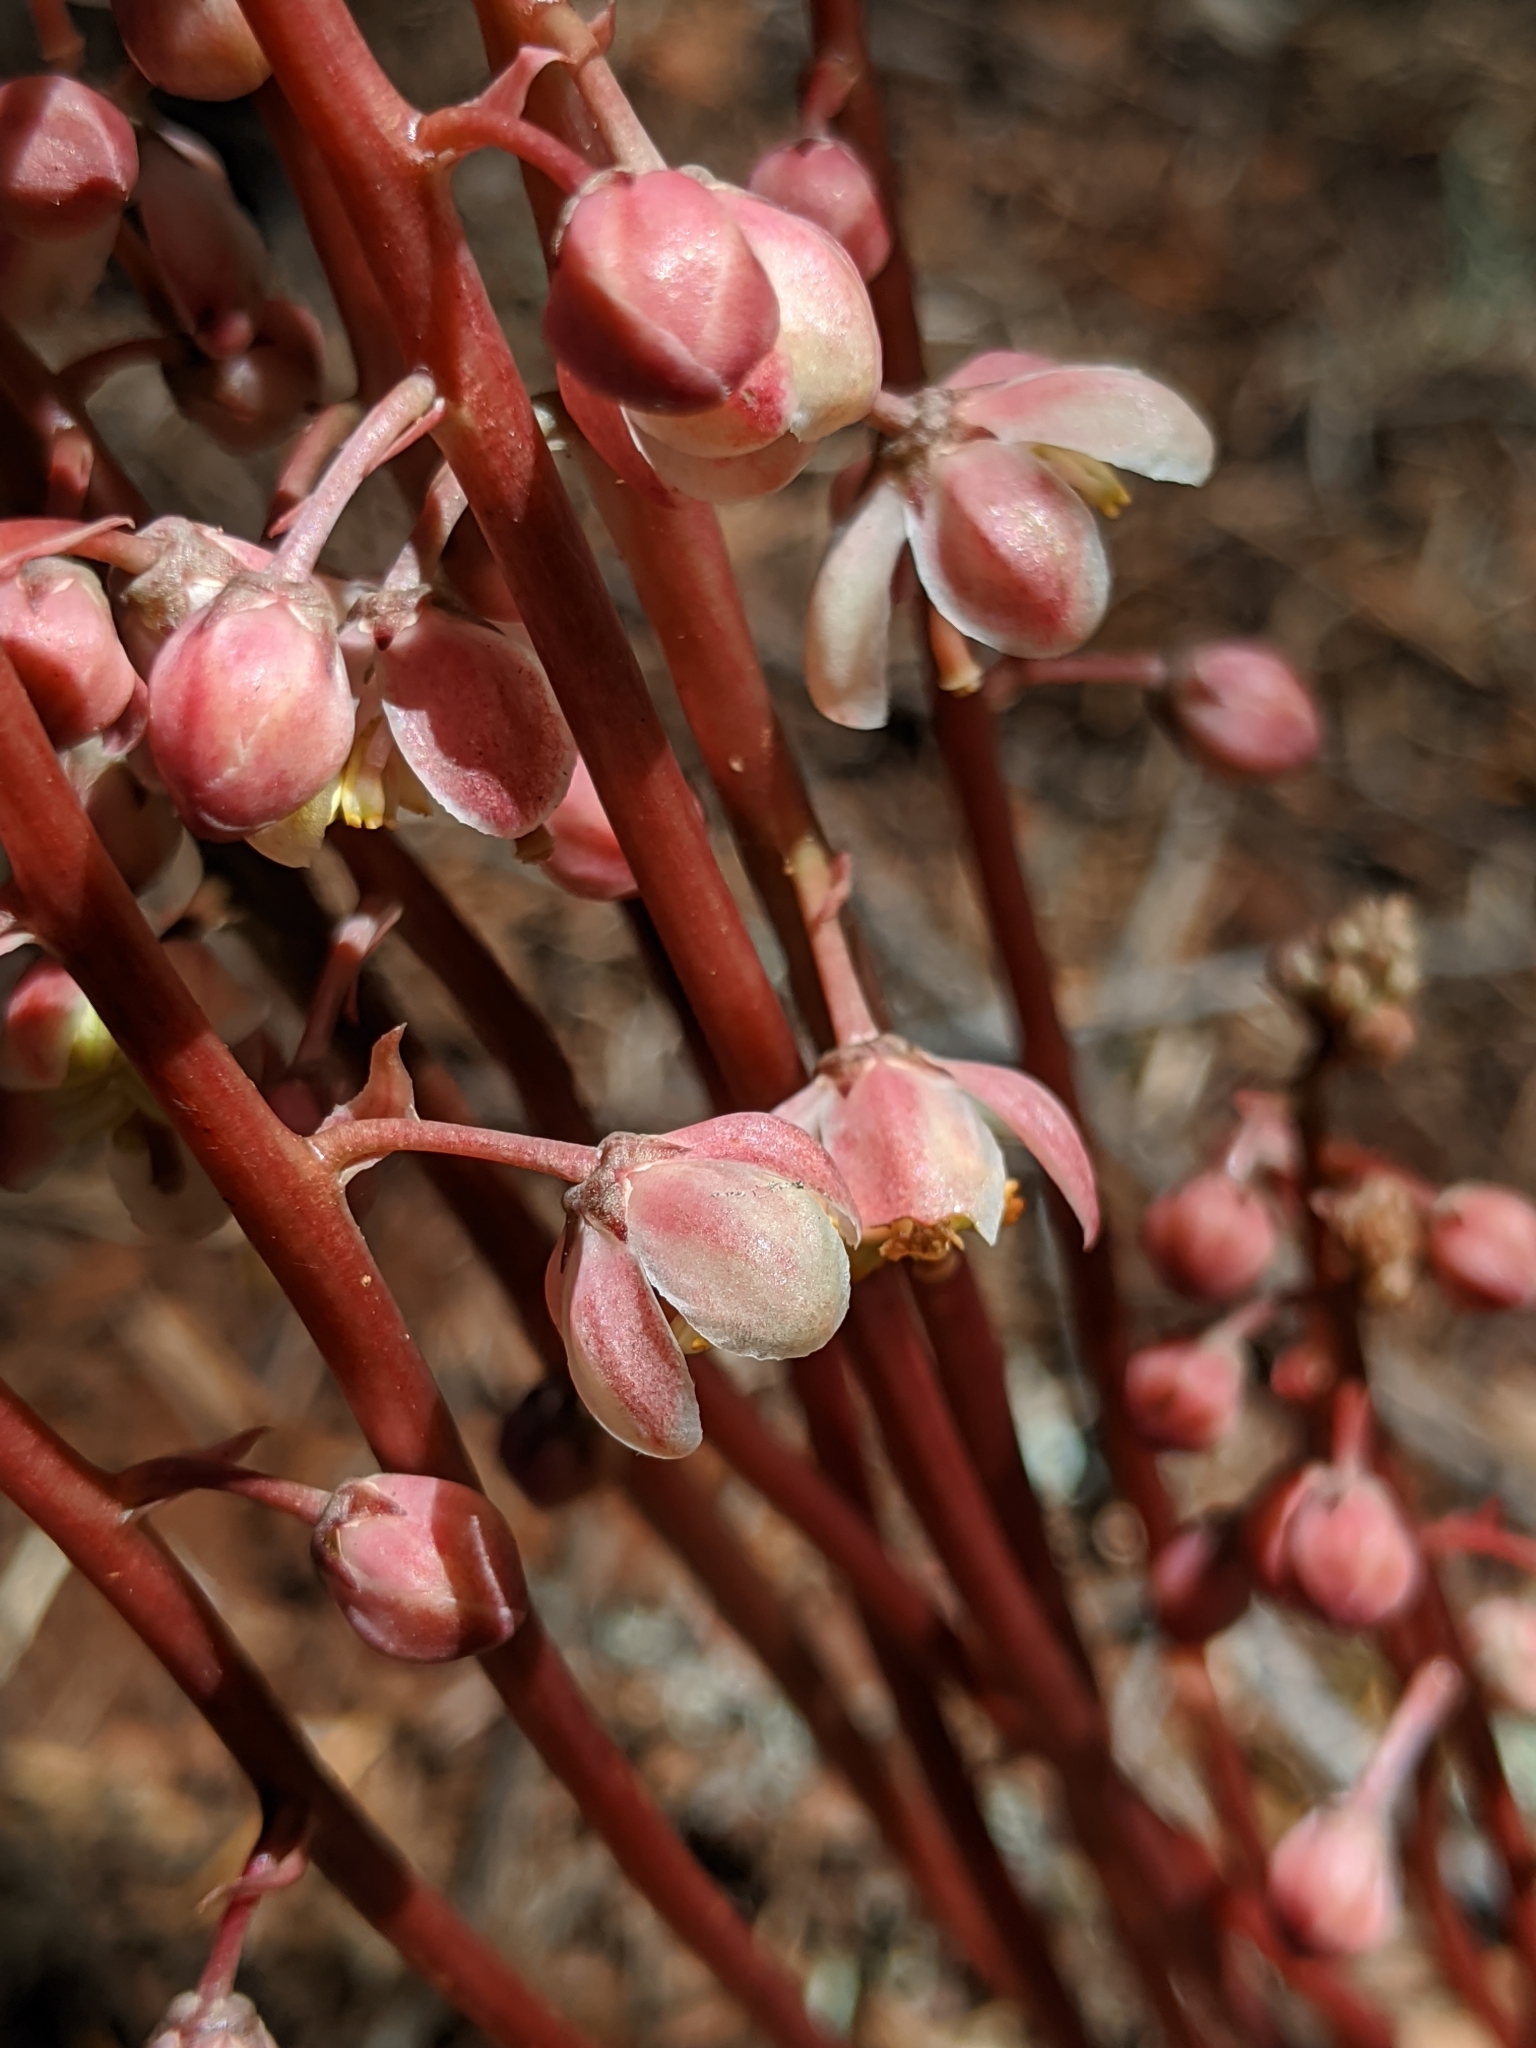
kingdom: Plantae
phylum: Tracheophyta
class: Magnoliopsida
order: Ericales
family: Ericaceae
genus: Pyrola
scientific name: Pyrola aphylla
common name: Leafless wintergreen
